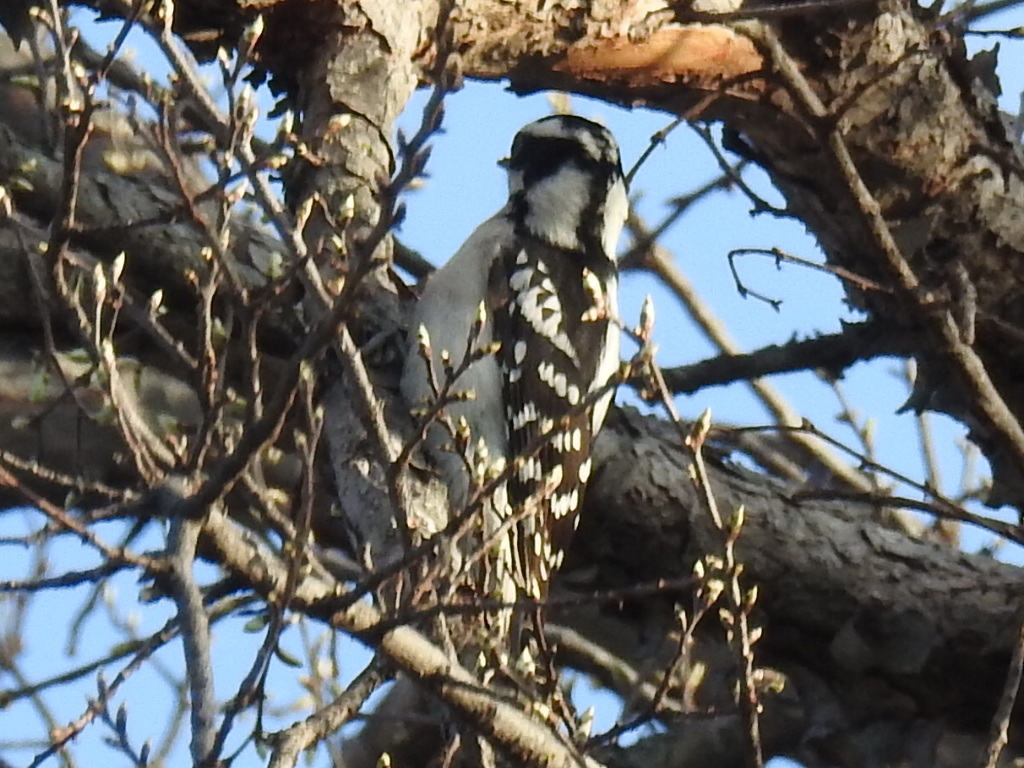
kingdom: Animalia
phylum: Chordata
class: Aves
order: Piciformes
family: Picidae
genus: Dryobates
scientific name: Dryobates pubescens
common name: Downy woodpecker
